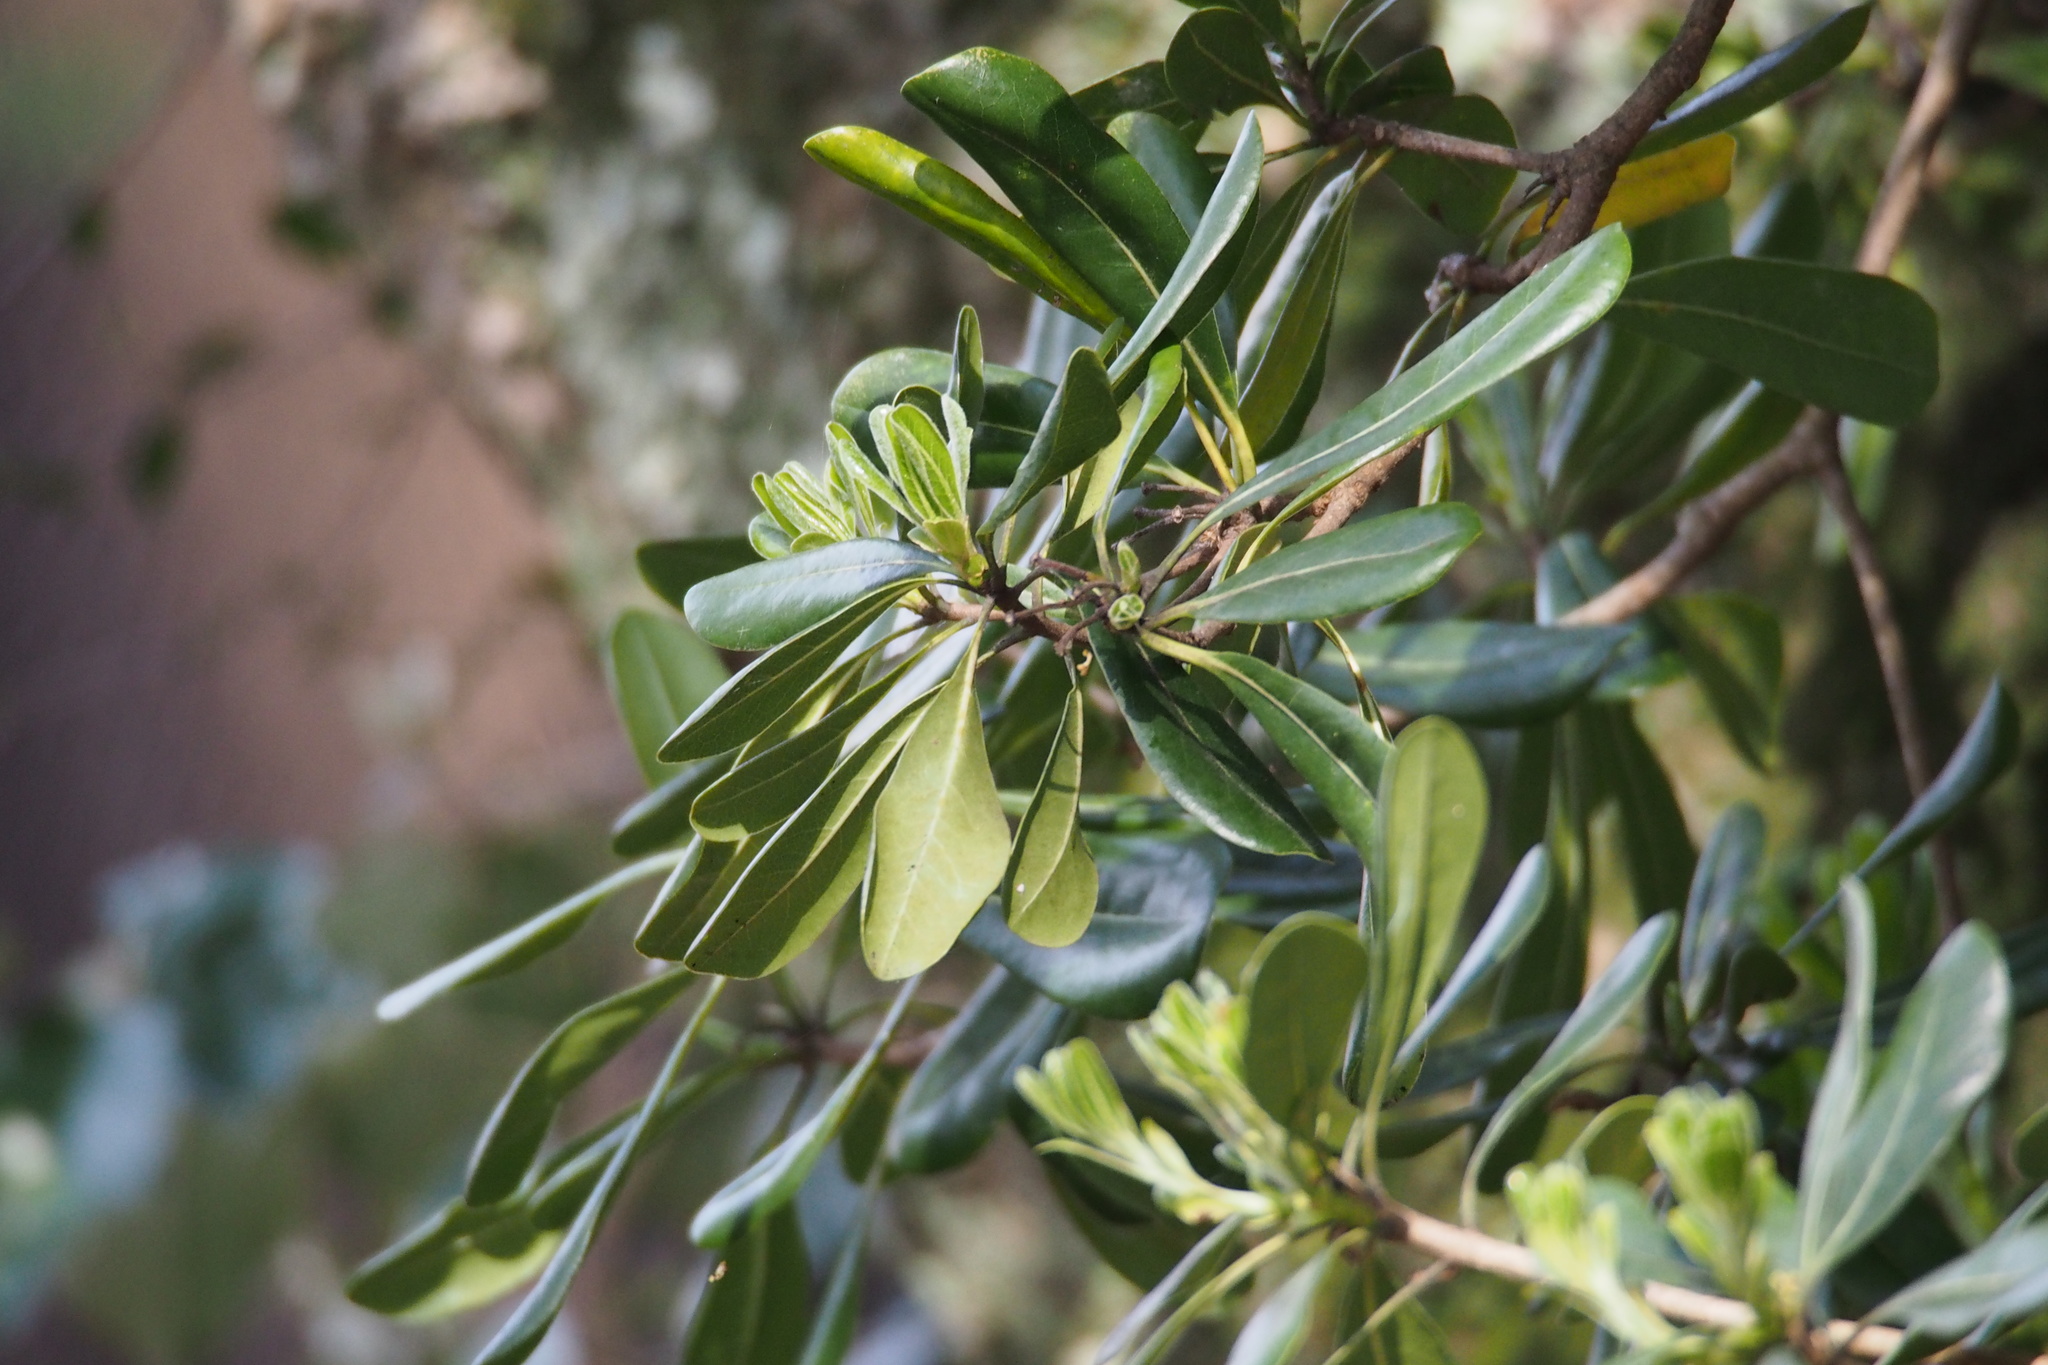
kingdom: Plantae
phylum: Tracheophyta
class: Magnoliopsida
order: Apiales
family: Pittosporaceae
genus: Pittosporum
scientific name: Pittosporum tobira
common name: Japanese cheesewood
